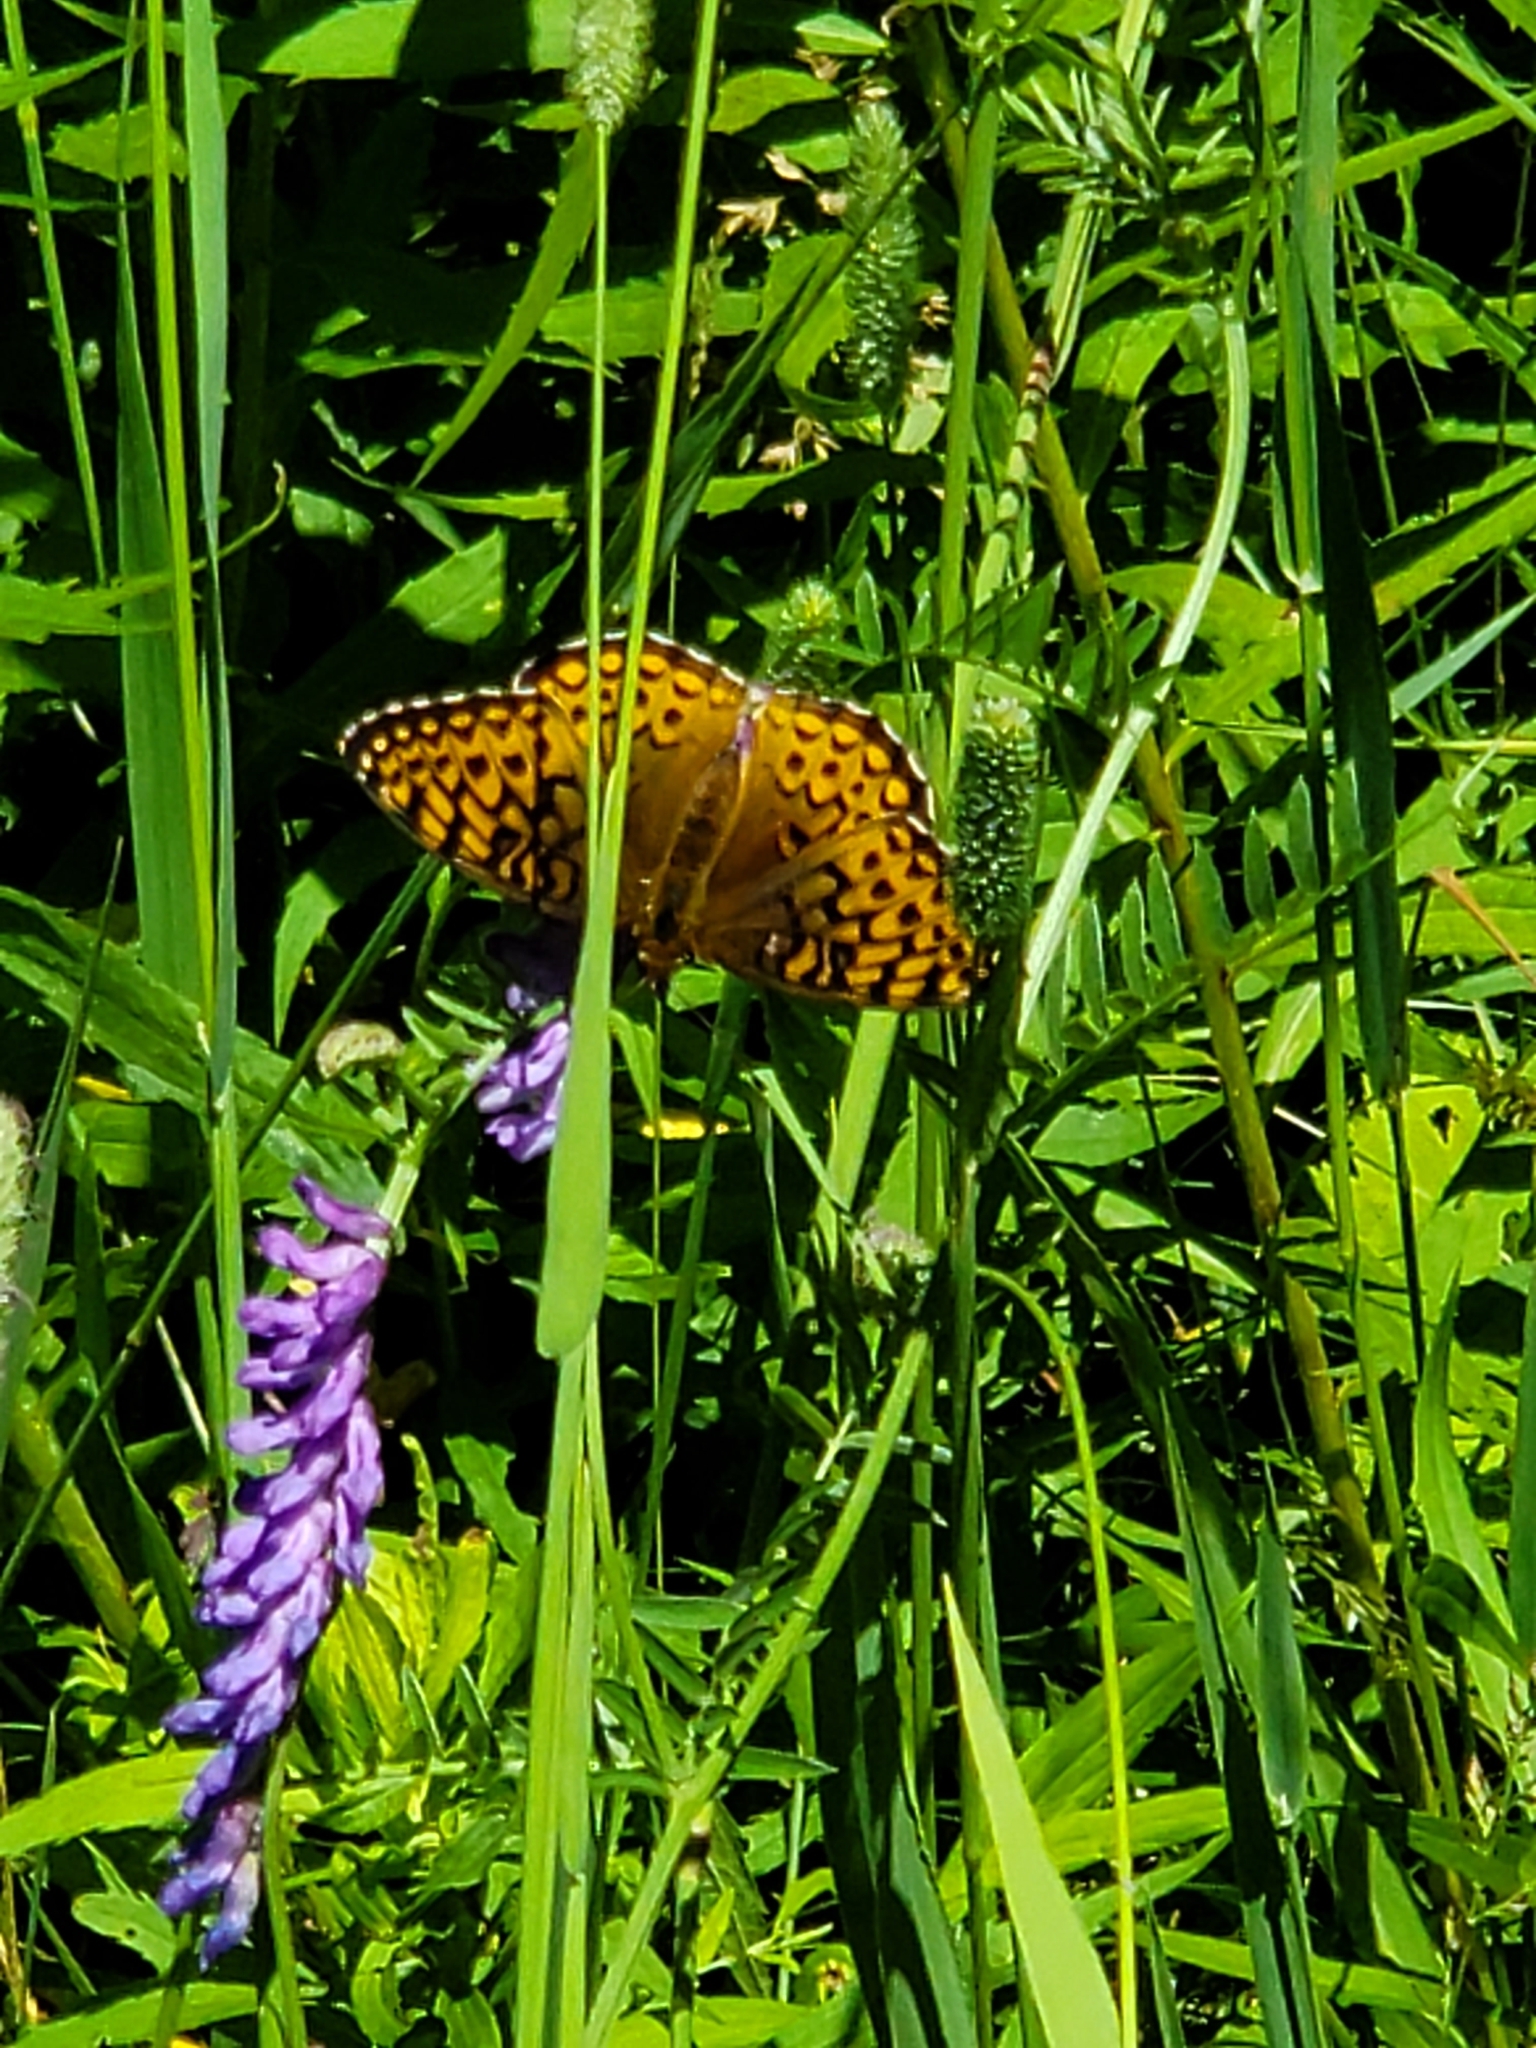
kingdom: Animalia
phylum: Arthropoda
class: Insecta
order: Lepidoptera
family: Nymphalidae
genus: Speyeria
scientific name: Speyeria atlantis
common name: Atlantis fritillary
